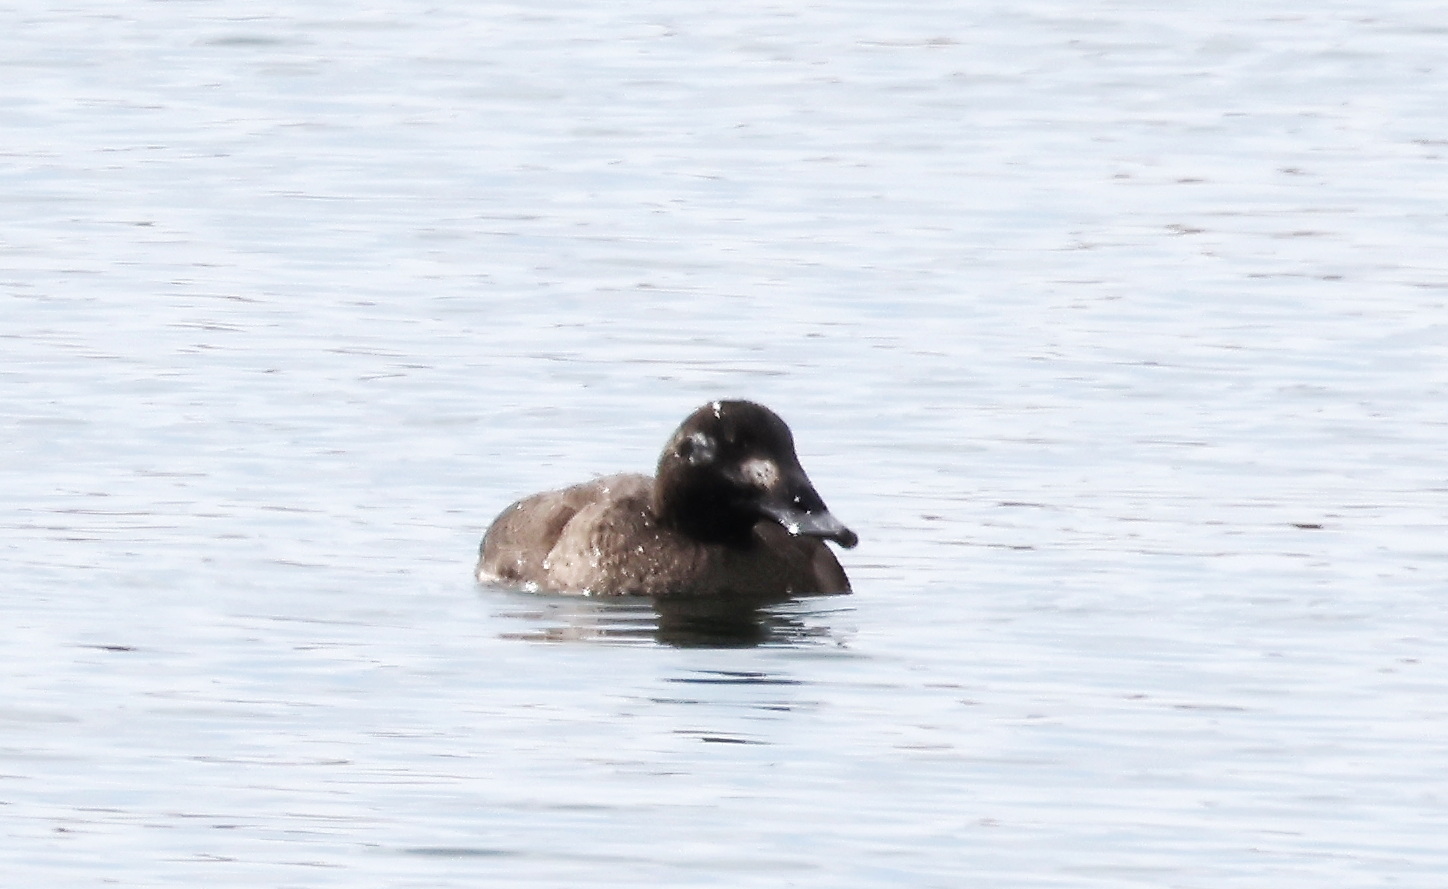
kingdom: Animalia
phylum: Chordata
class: Aves
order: Anseriformes
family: Anatidae
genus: Melanitta
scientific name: Melanitta deglandi
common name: White-winged scoter
